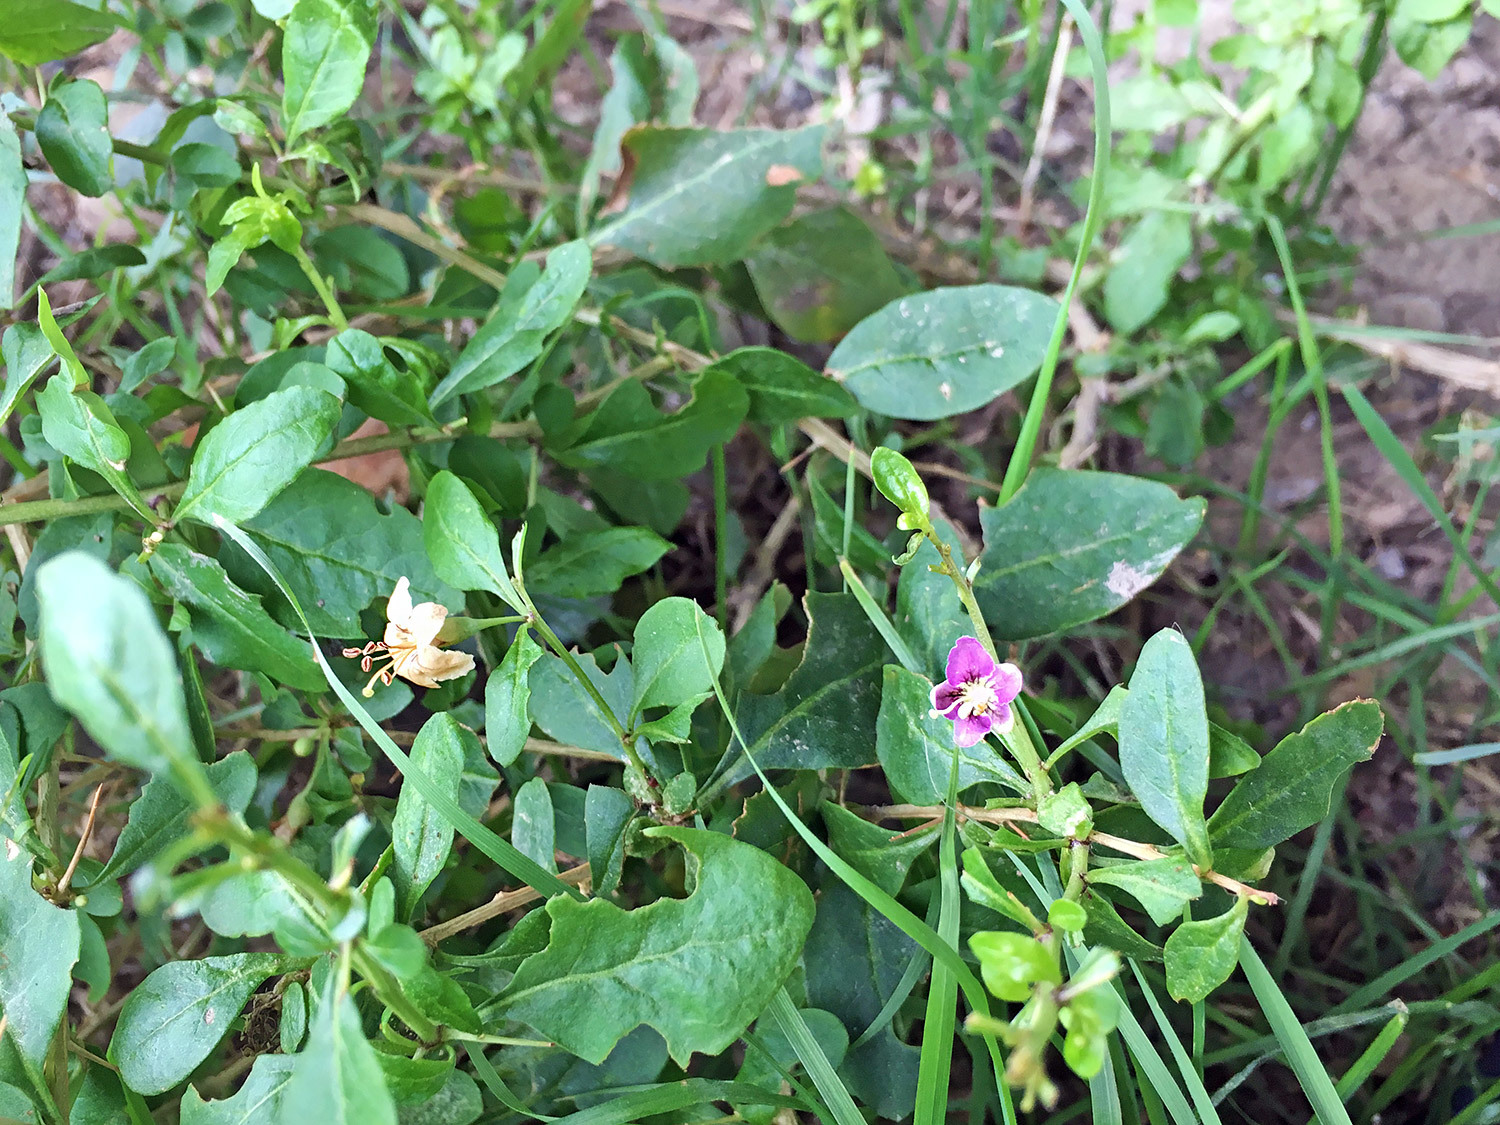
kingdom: Plantae
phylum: Tracheophyta
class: Magnoliopsida
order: Solanales
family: Solanaceae
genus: Lycium
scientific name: Lycium chinense
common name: Chinese teaplant
